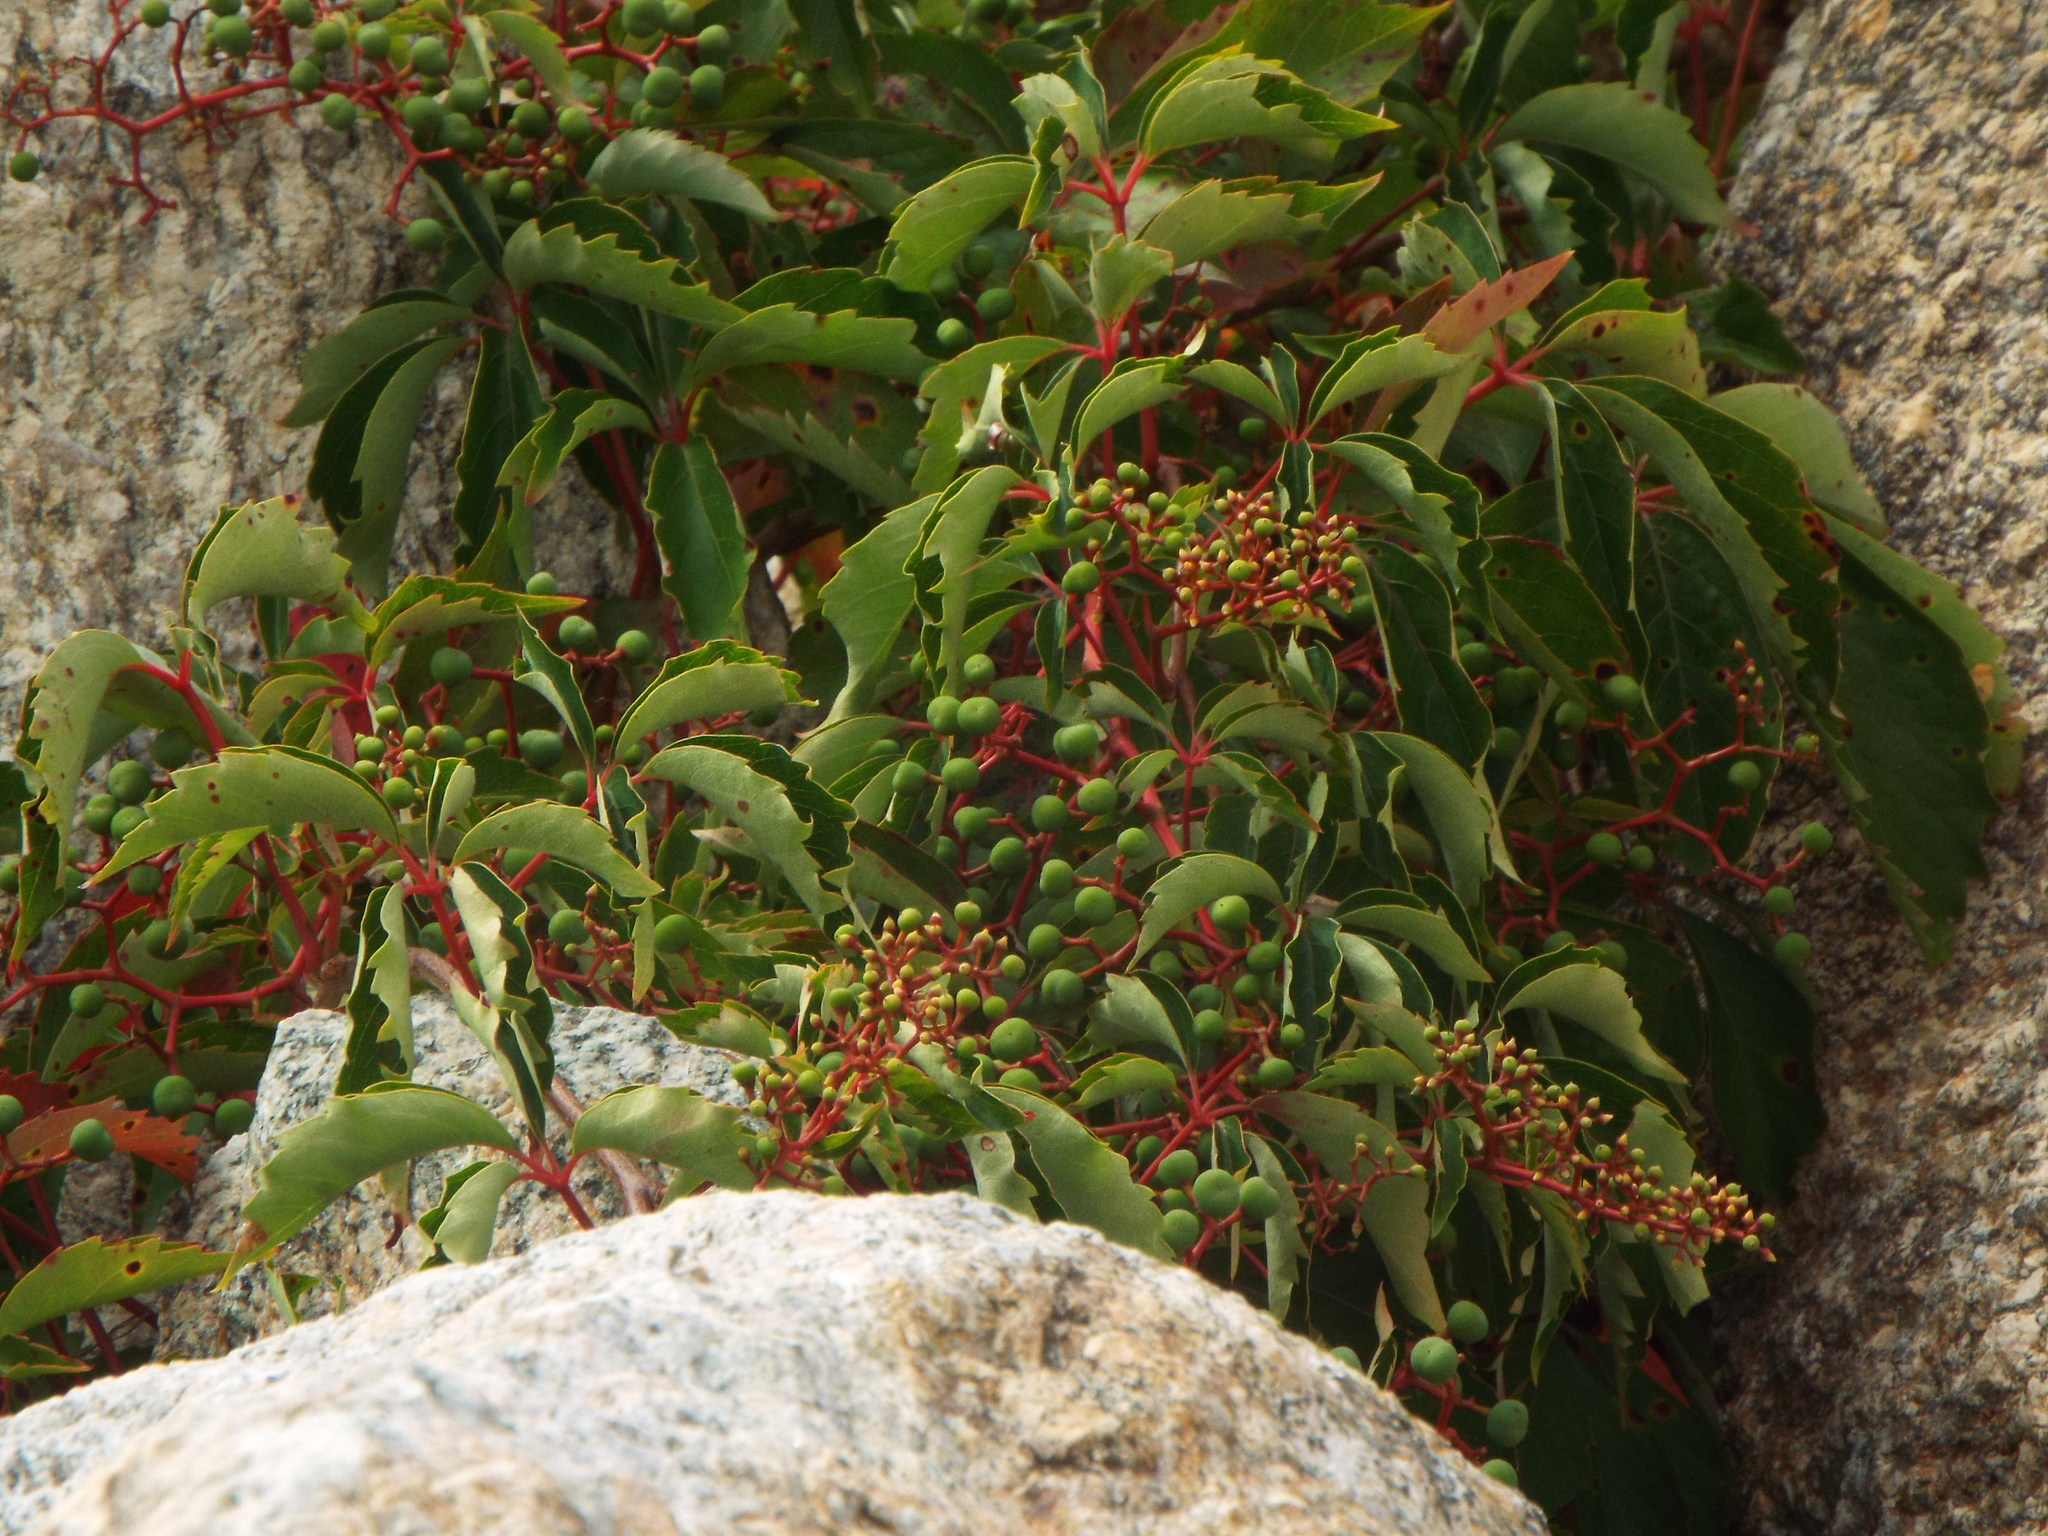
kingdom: Plantae
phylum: Tracheophyta
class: Magnoliopsida
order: Vitales
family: Vitaceae
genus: Parthenocissus
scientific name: Parthenocissus inserta
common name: False virginia-creeper
